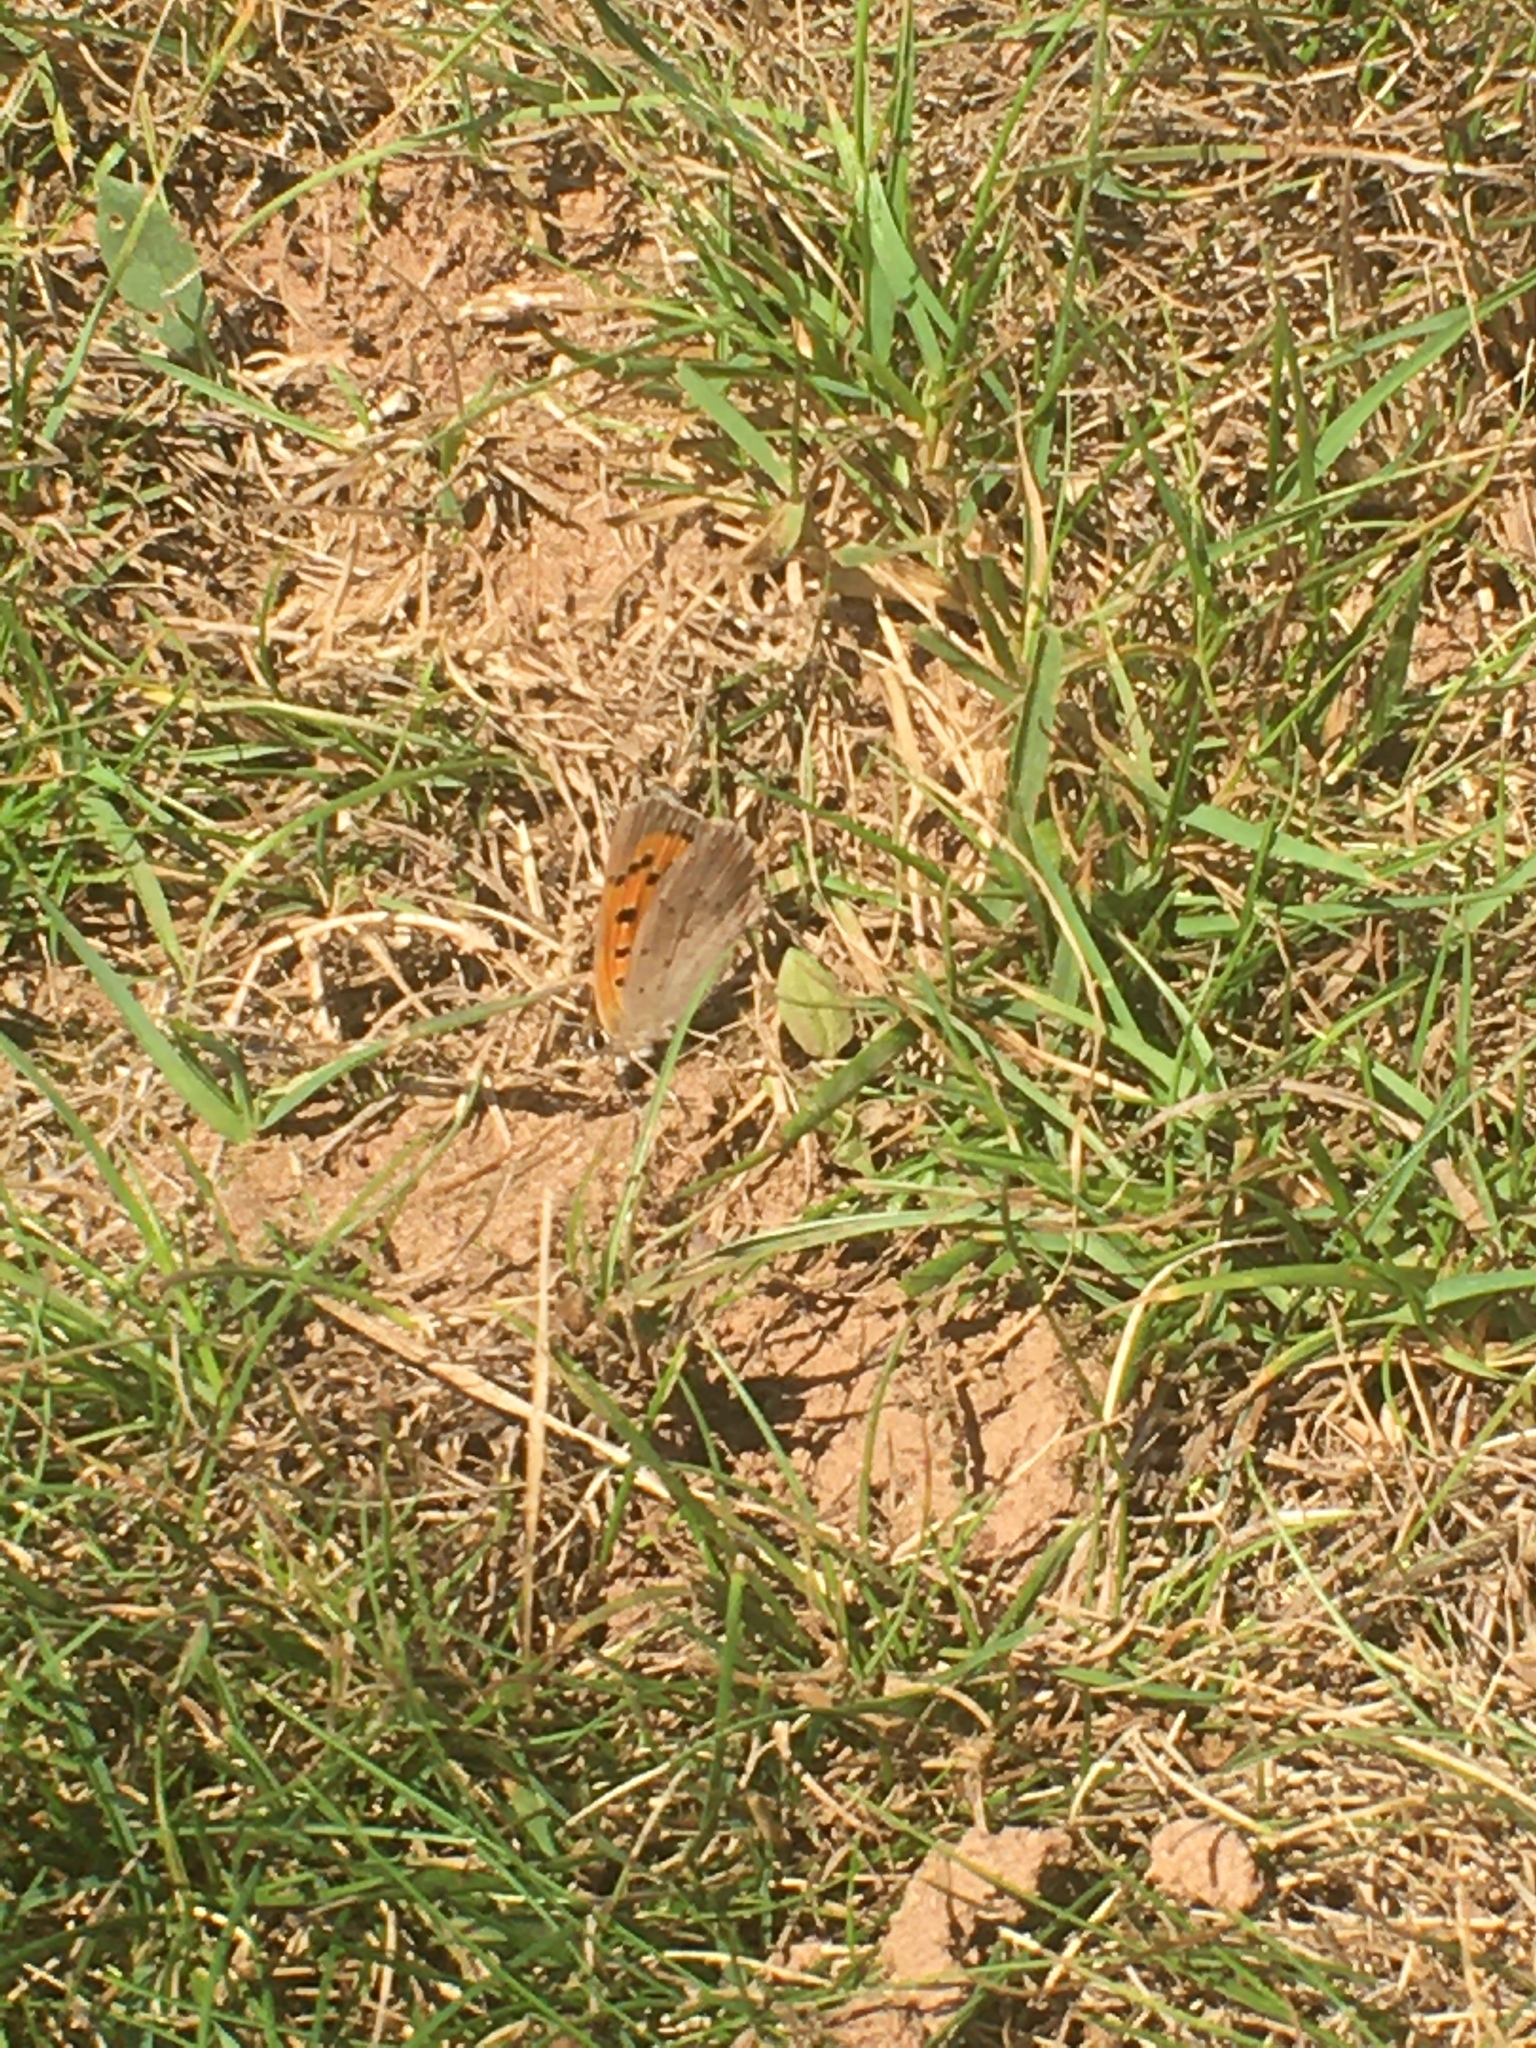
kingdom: Animalia
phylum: Arthropoda
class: Insecta
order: Lepidoptera
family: Lycaenidae
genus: Lycaena
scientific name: Lycaena phlaeas
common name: Small copper
